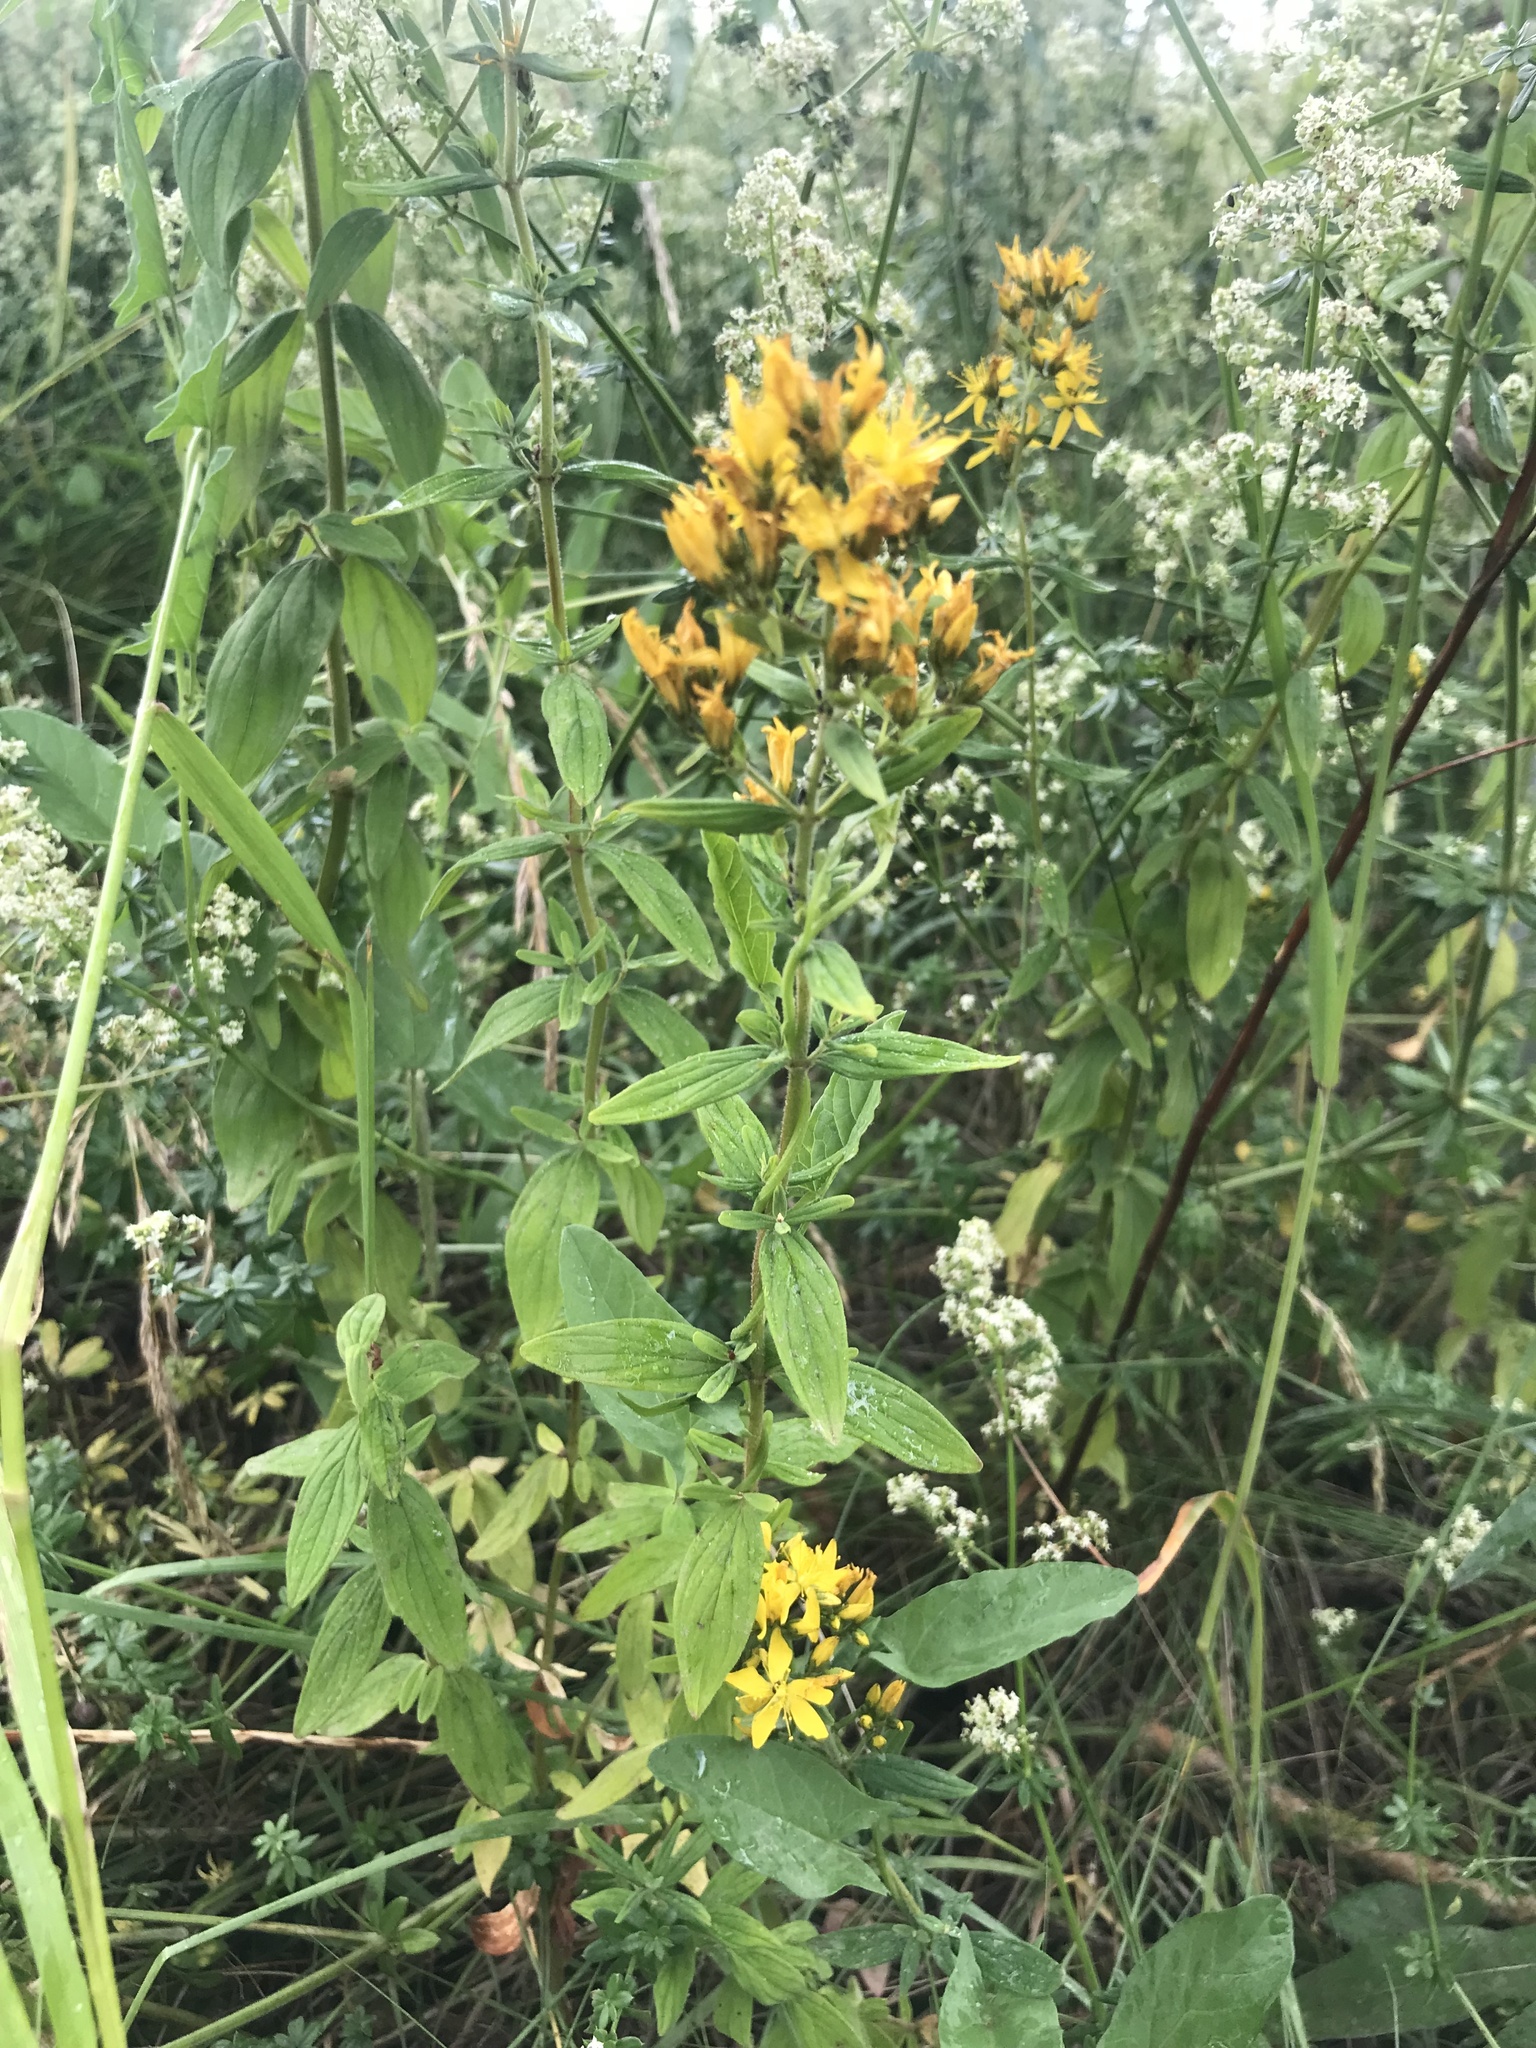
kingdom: Plantae
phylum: Tracheophyta
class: Magnoliopsida
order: Malpighiales
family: Hypericaceae
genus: Hypericum
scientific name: Hypericum hirsutum
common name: Hairy st. john's-wort
